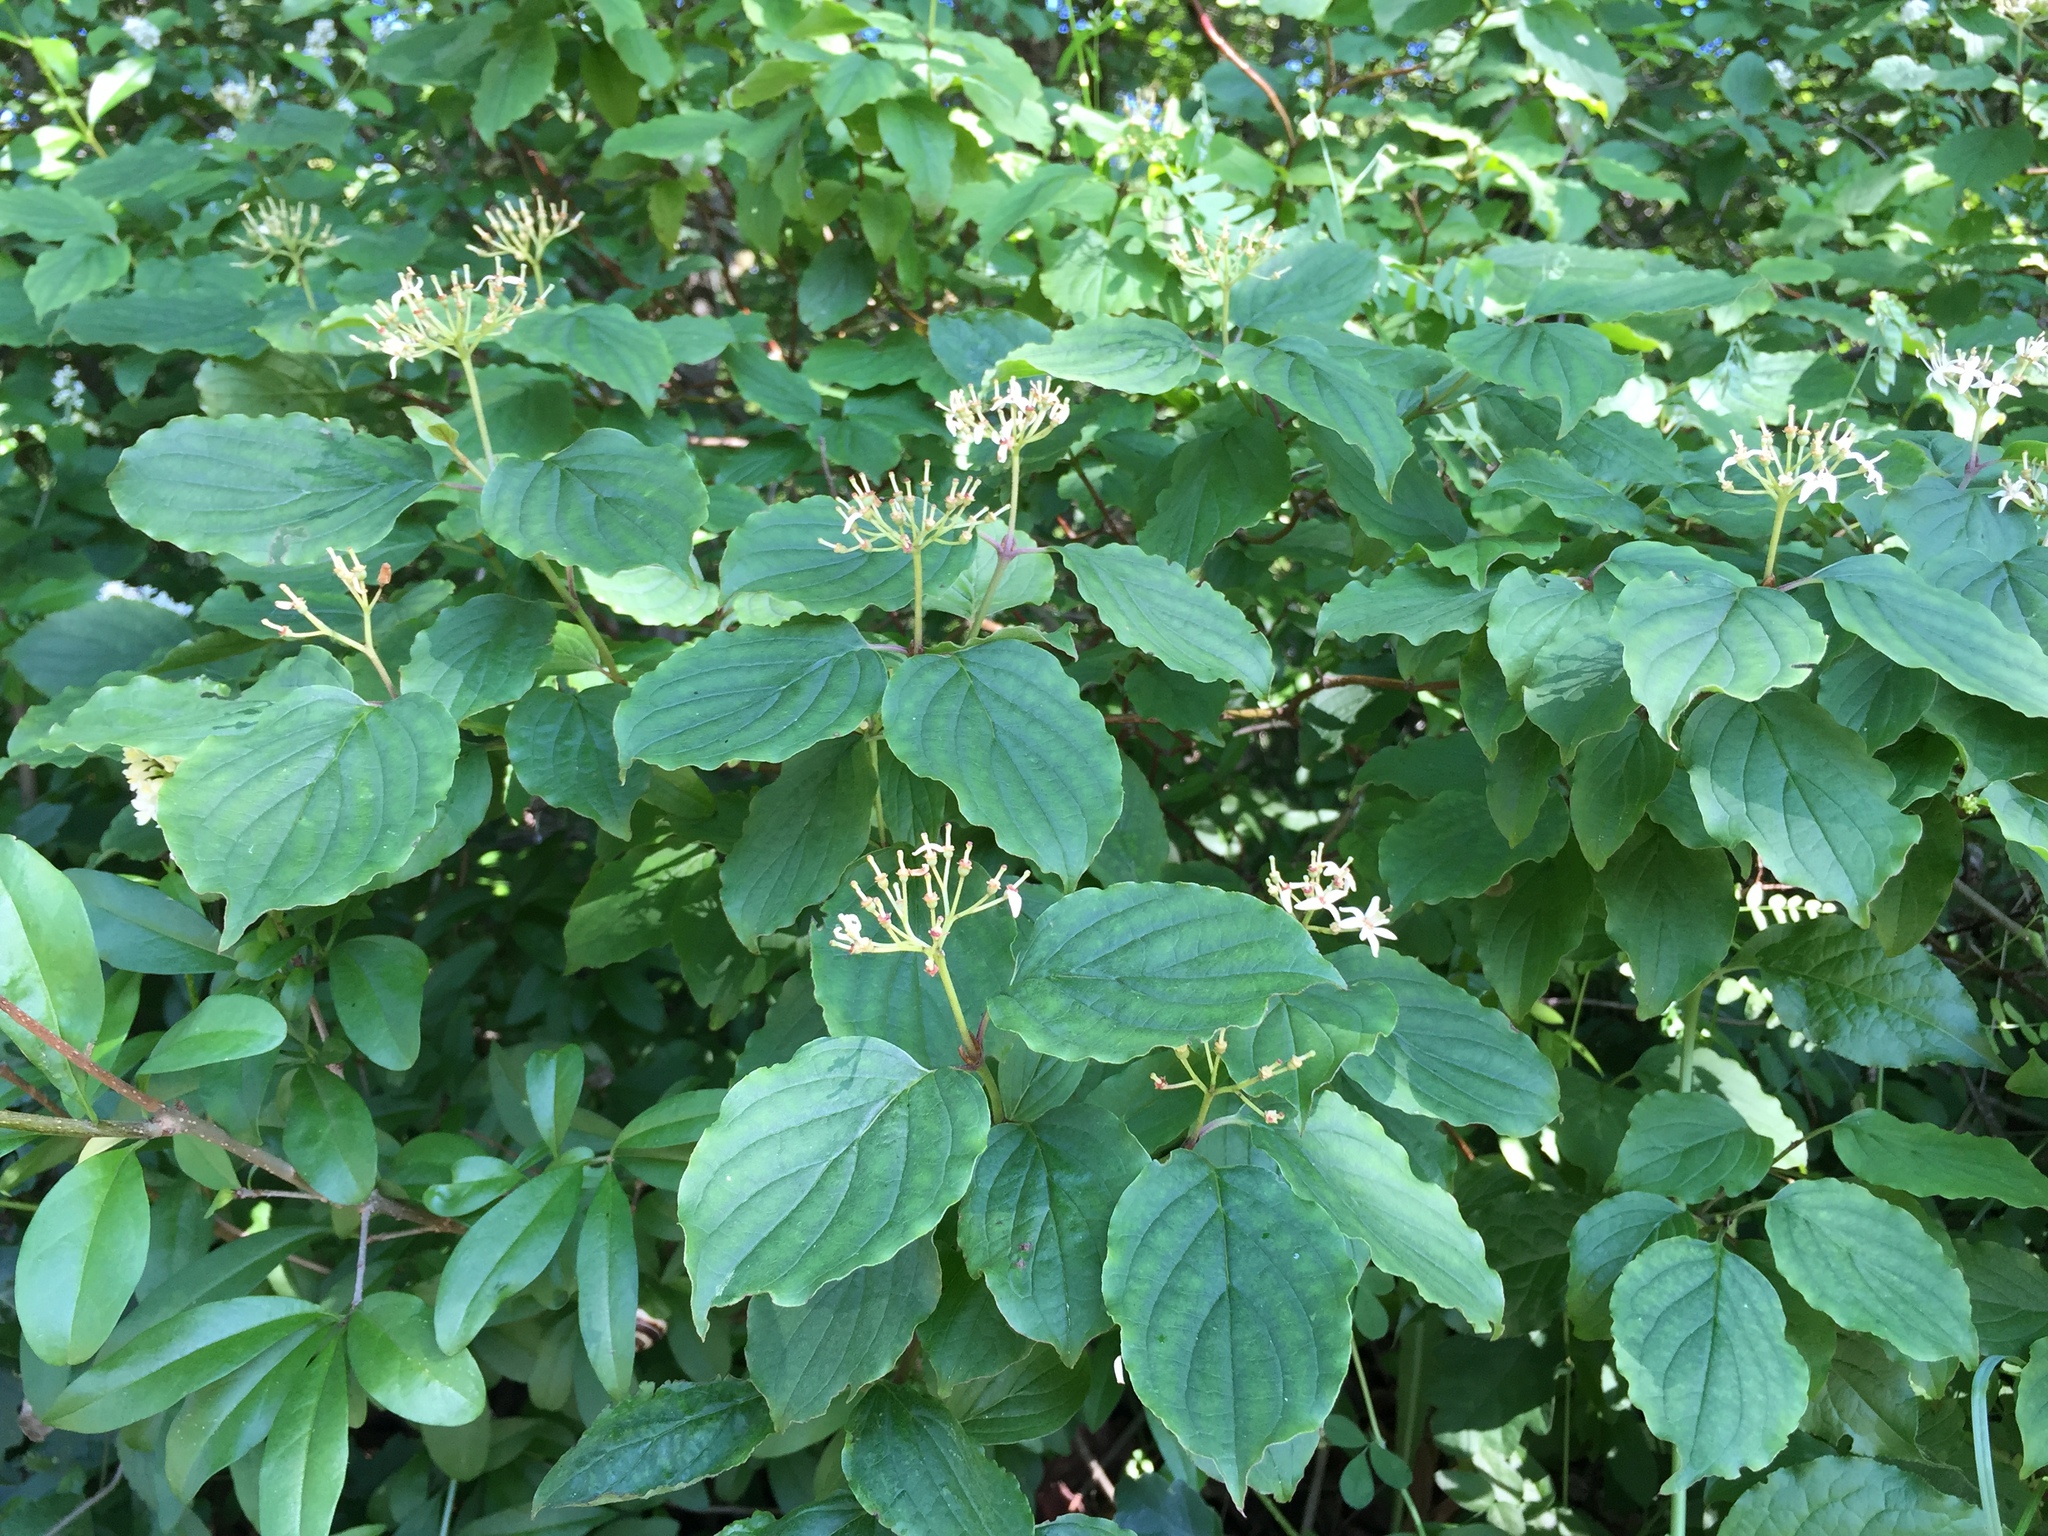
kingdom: Plantae
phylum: Tracheophyta
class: Magnoliopsida
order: Cornales
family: Cornaceae
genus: Cornus
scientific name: Cornus sanguinea
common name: Dogwood
